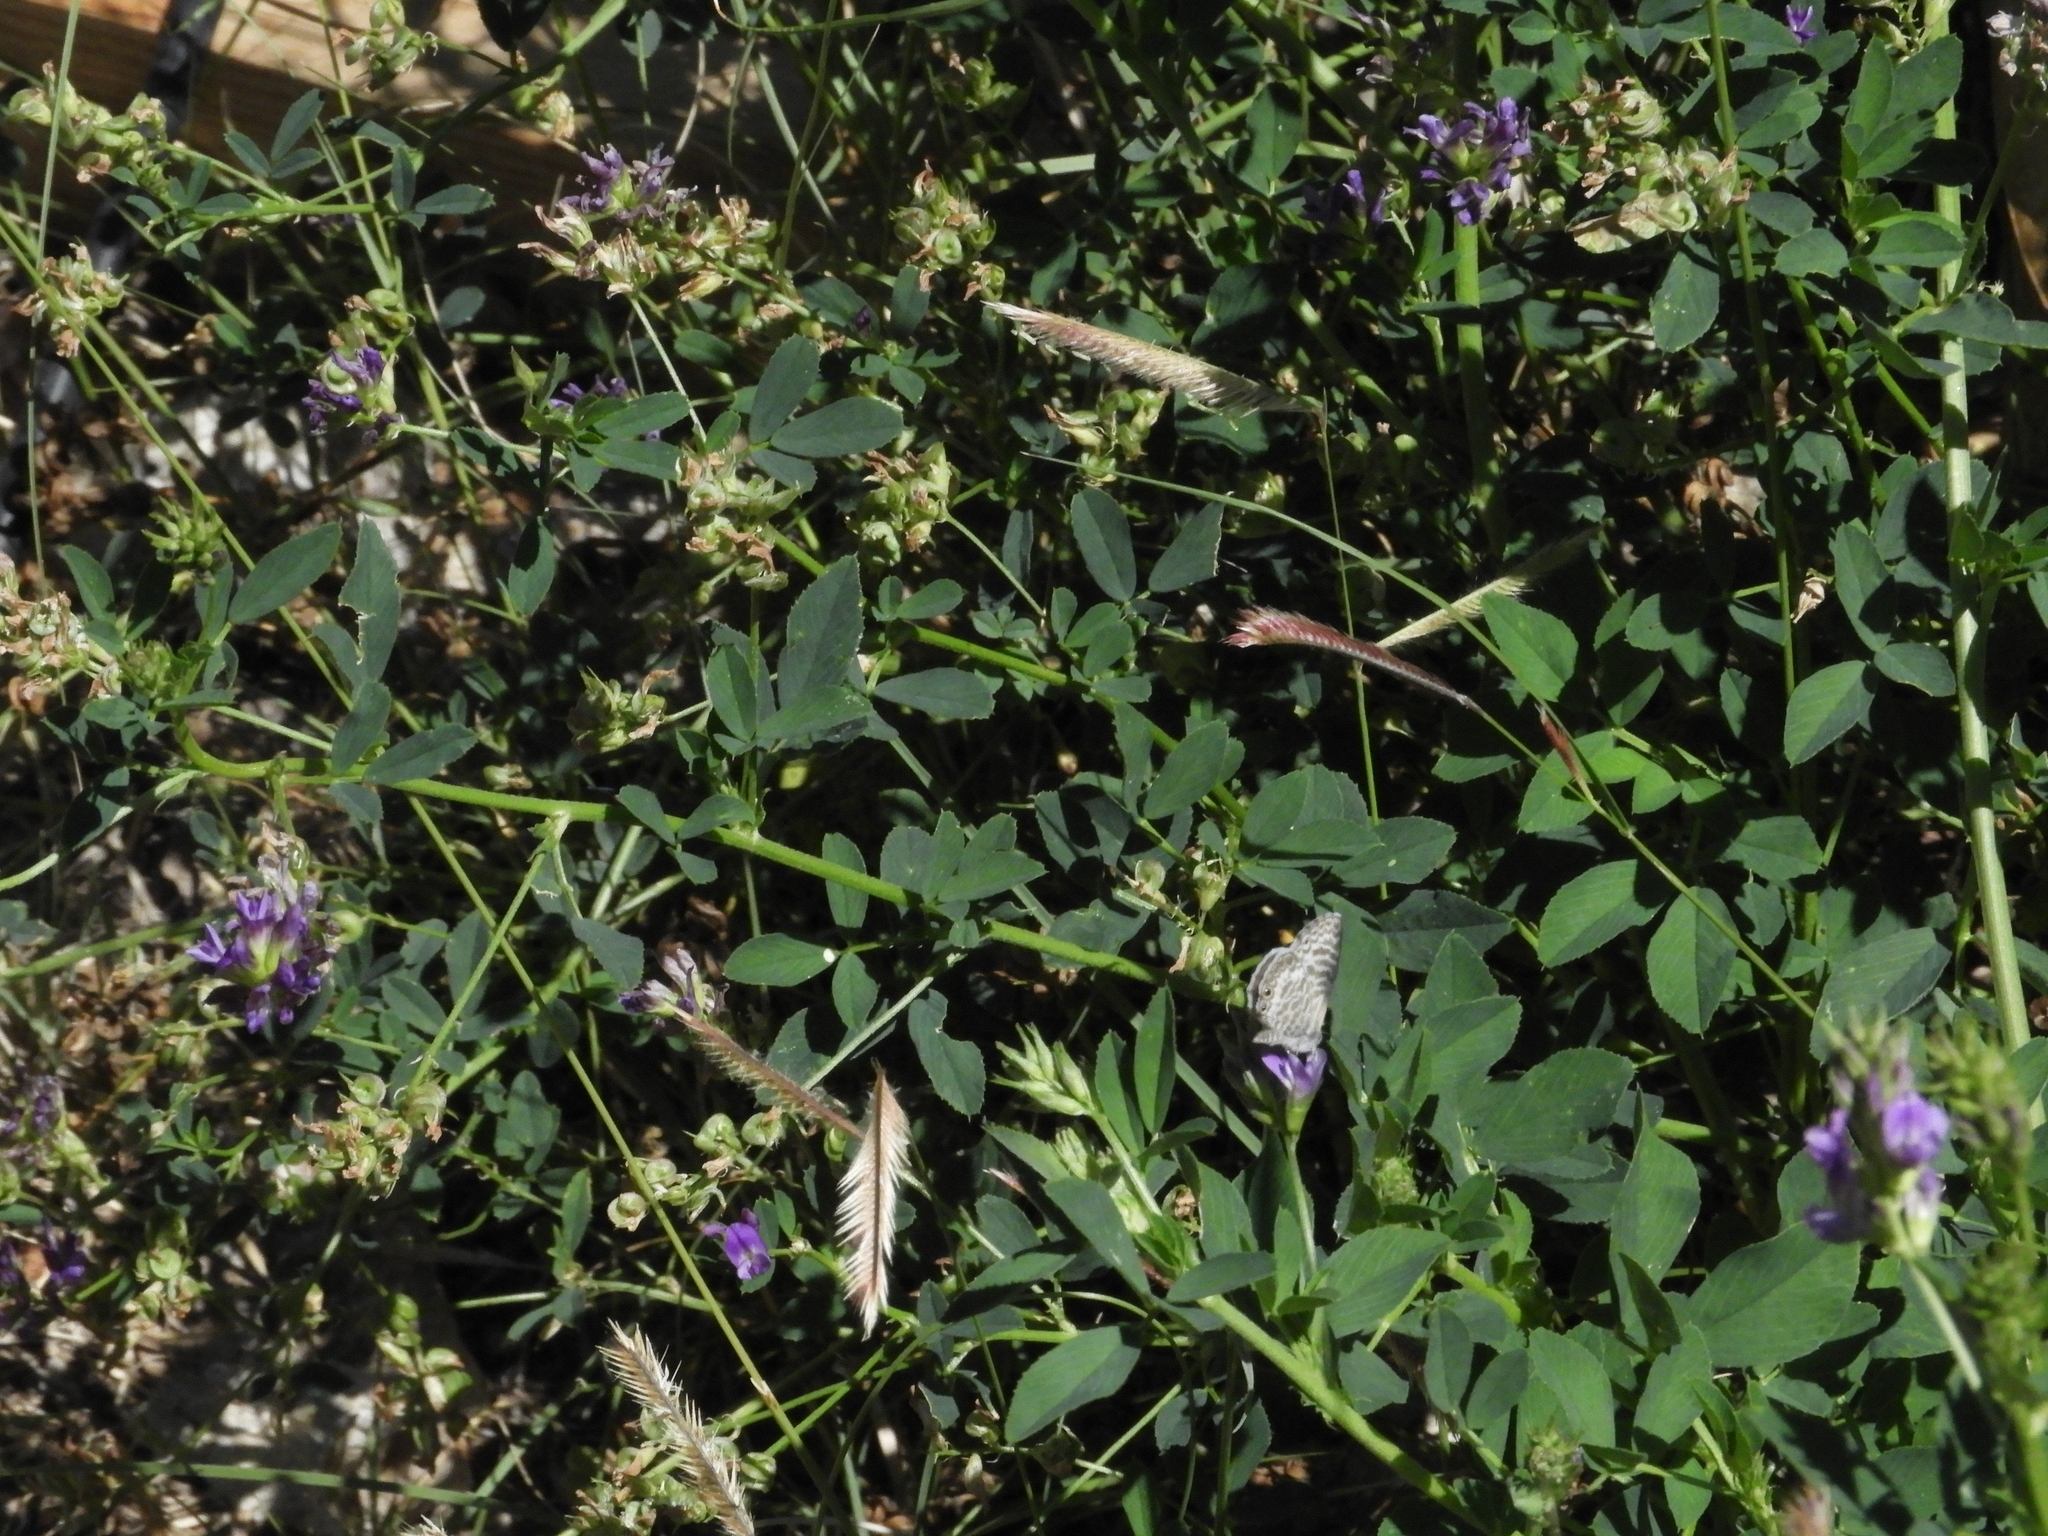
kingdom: Animalia
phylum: Arthropoda
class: Insecta
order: Lepidoptera
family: Lycaenidae
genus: Leptotes
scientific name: Leptotes marina
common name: Marine blue
